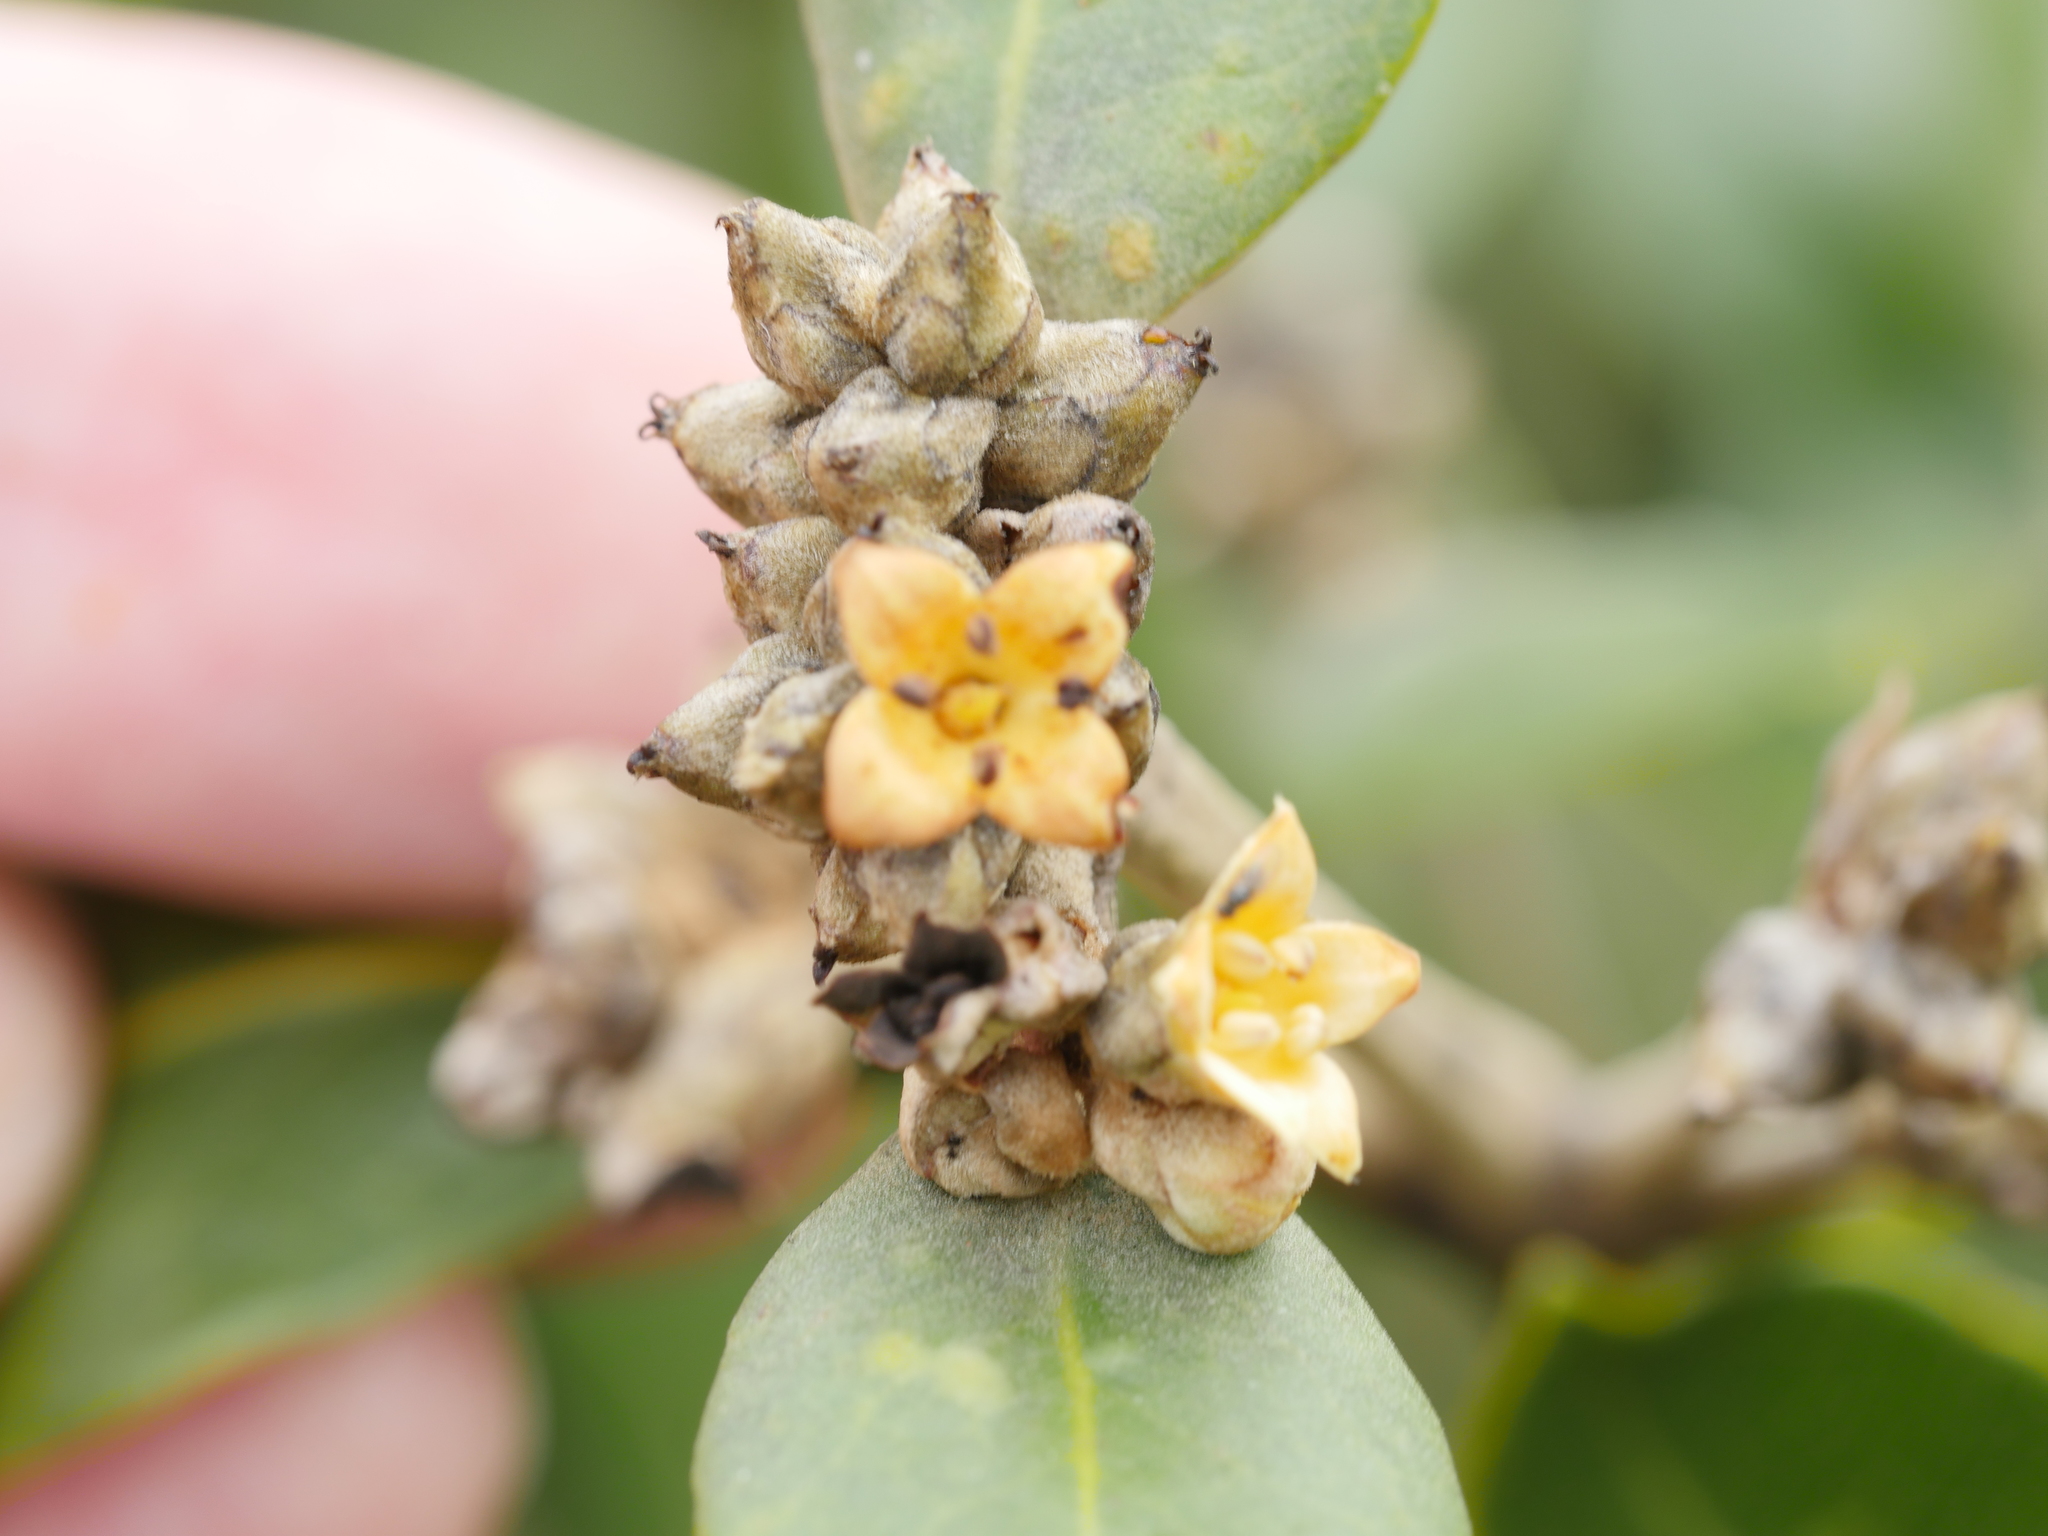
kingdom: Plantae
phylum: Tracheophyta
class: Magnoliopsida
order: Lamiales
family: Acanthaceae
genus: Avicennia
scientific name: Avicennia marina
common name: Gray mangrove
